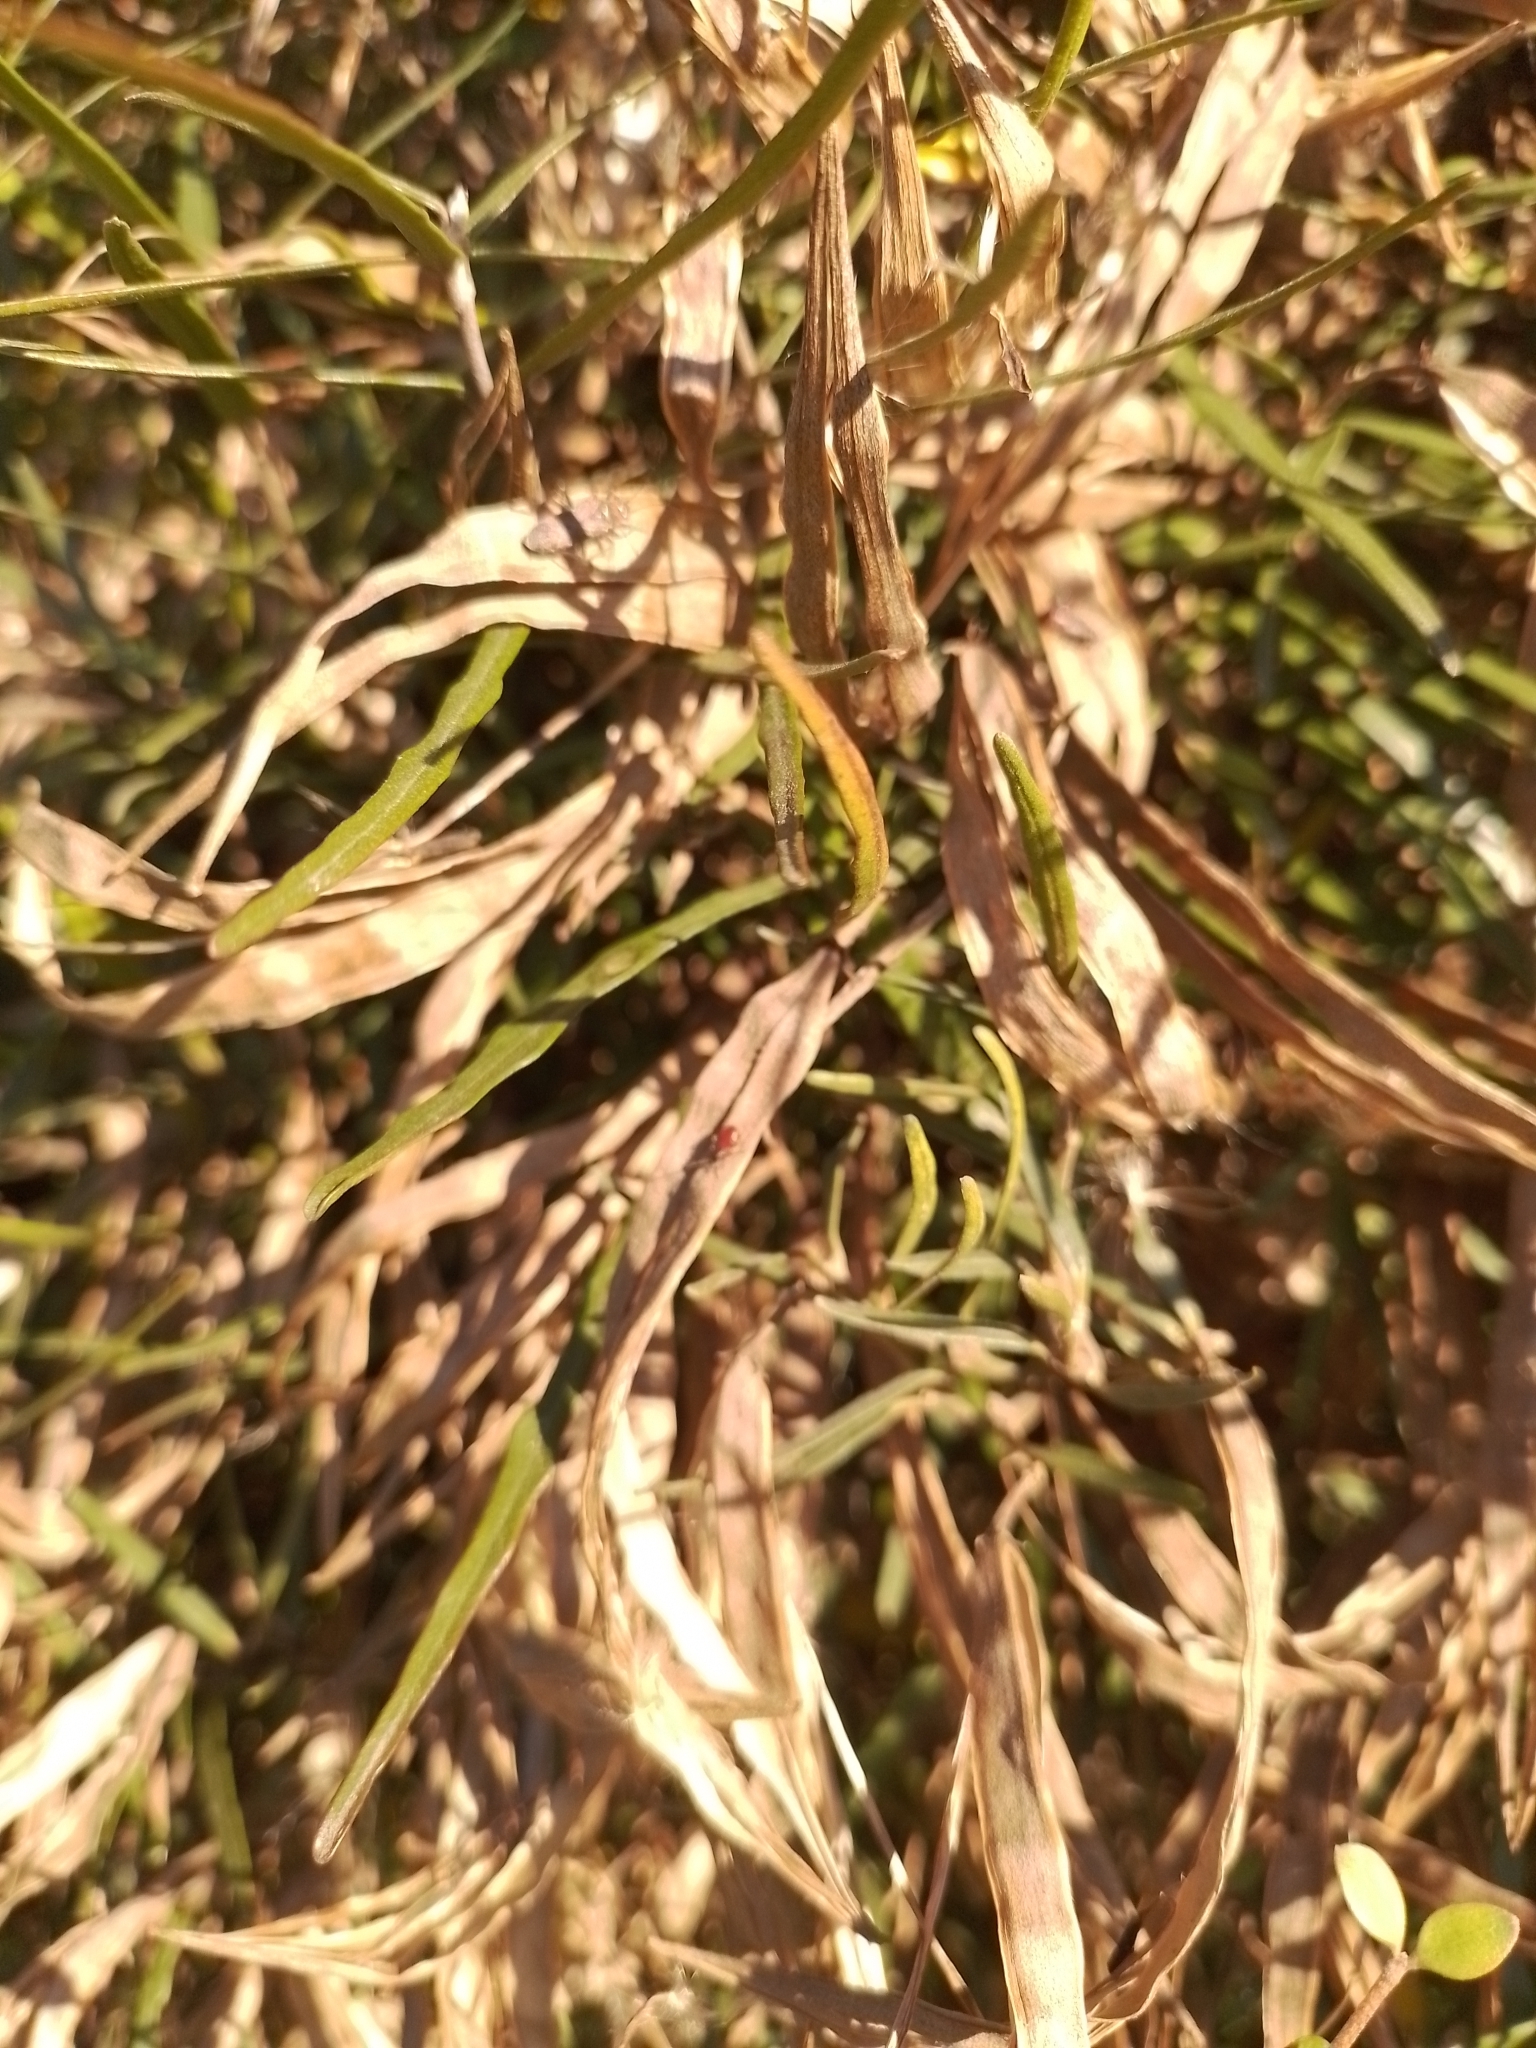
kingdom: Plantae
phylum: Tracheophyta
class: Magnoliopsida
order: Gentianales
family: Apocynaceae
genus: Parsonsia
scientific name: Parsonsia capsularis
